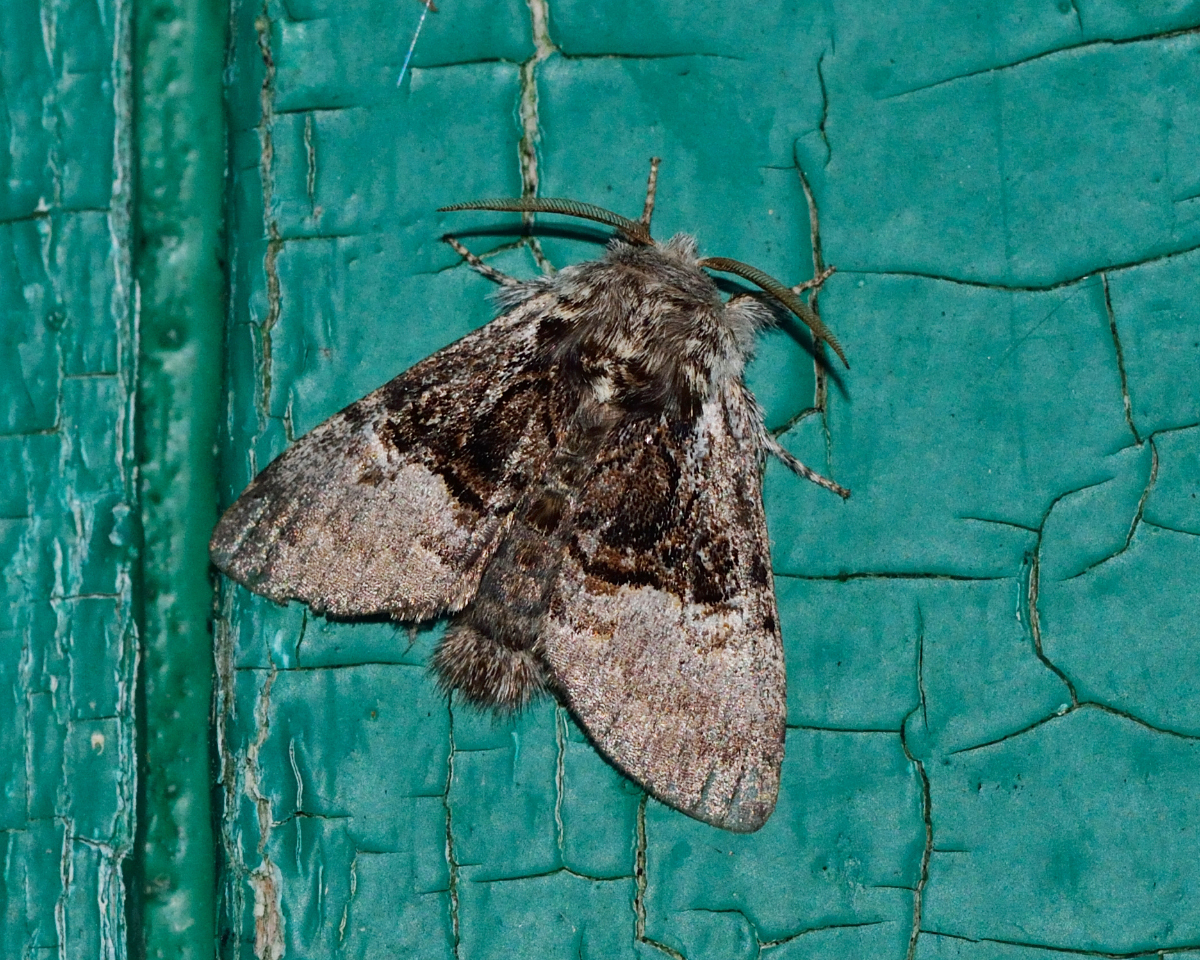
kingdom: Animalia
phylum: Arthropoda
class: Insecta
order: Lepidoptera
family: Noctuidae
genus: Colocasia
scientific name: Colocasia coryli
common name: Nut-tree tussock
